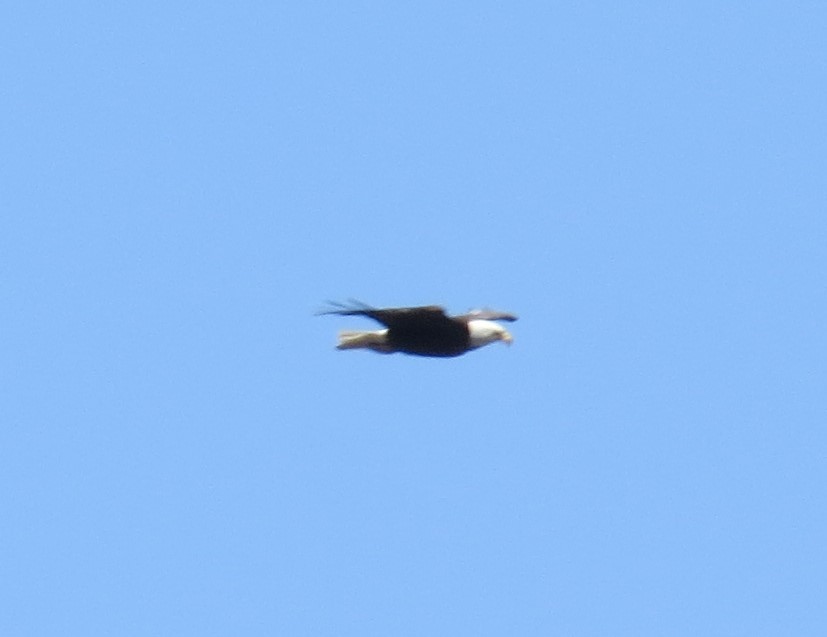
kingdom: Animalia
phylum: Chordata
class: Aves
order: Accipitriformes
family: Accipitridae
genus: Haliaeetus
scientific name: Haliaeetus leucocephalus
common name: Bald eagle
